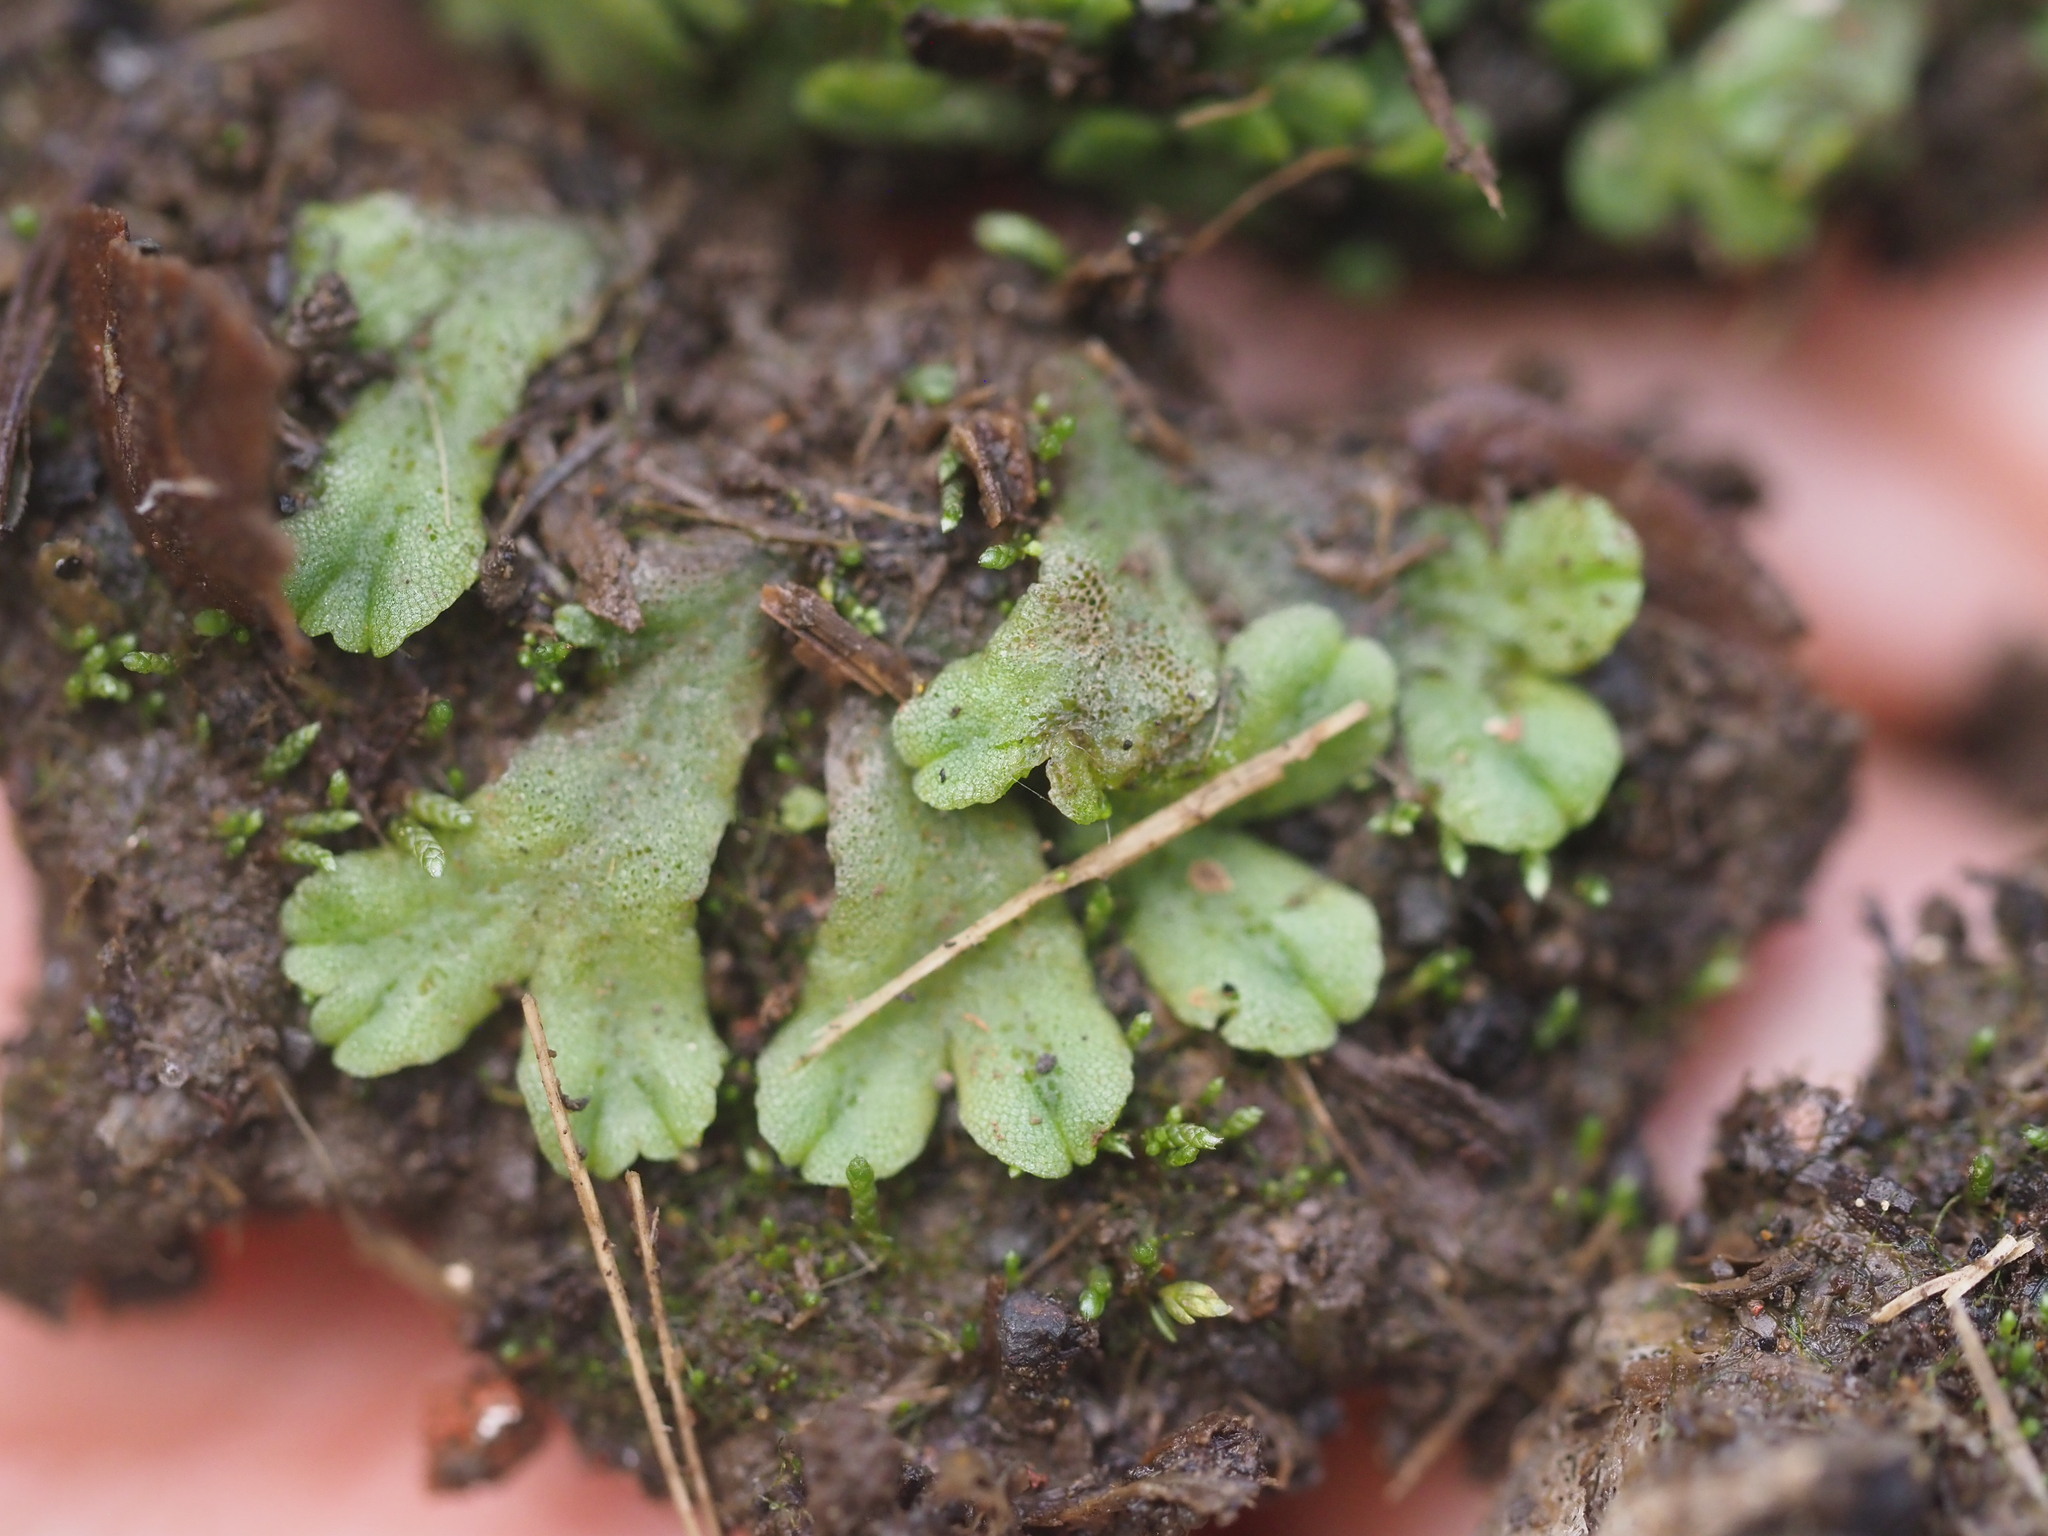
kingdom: Plantae
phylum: Bryophyta
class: Bryopsida
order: Bryales
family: Bryaceae
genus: Bryum
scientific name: Bryum argenteum
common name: Silver-moss
